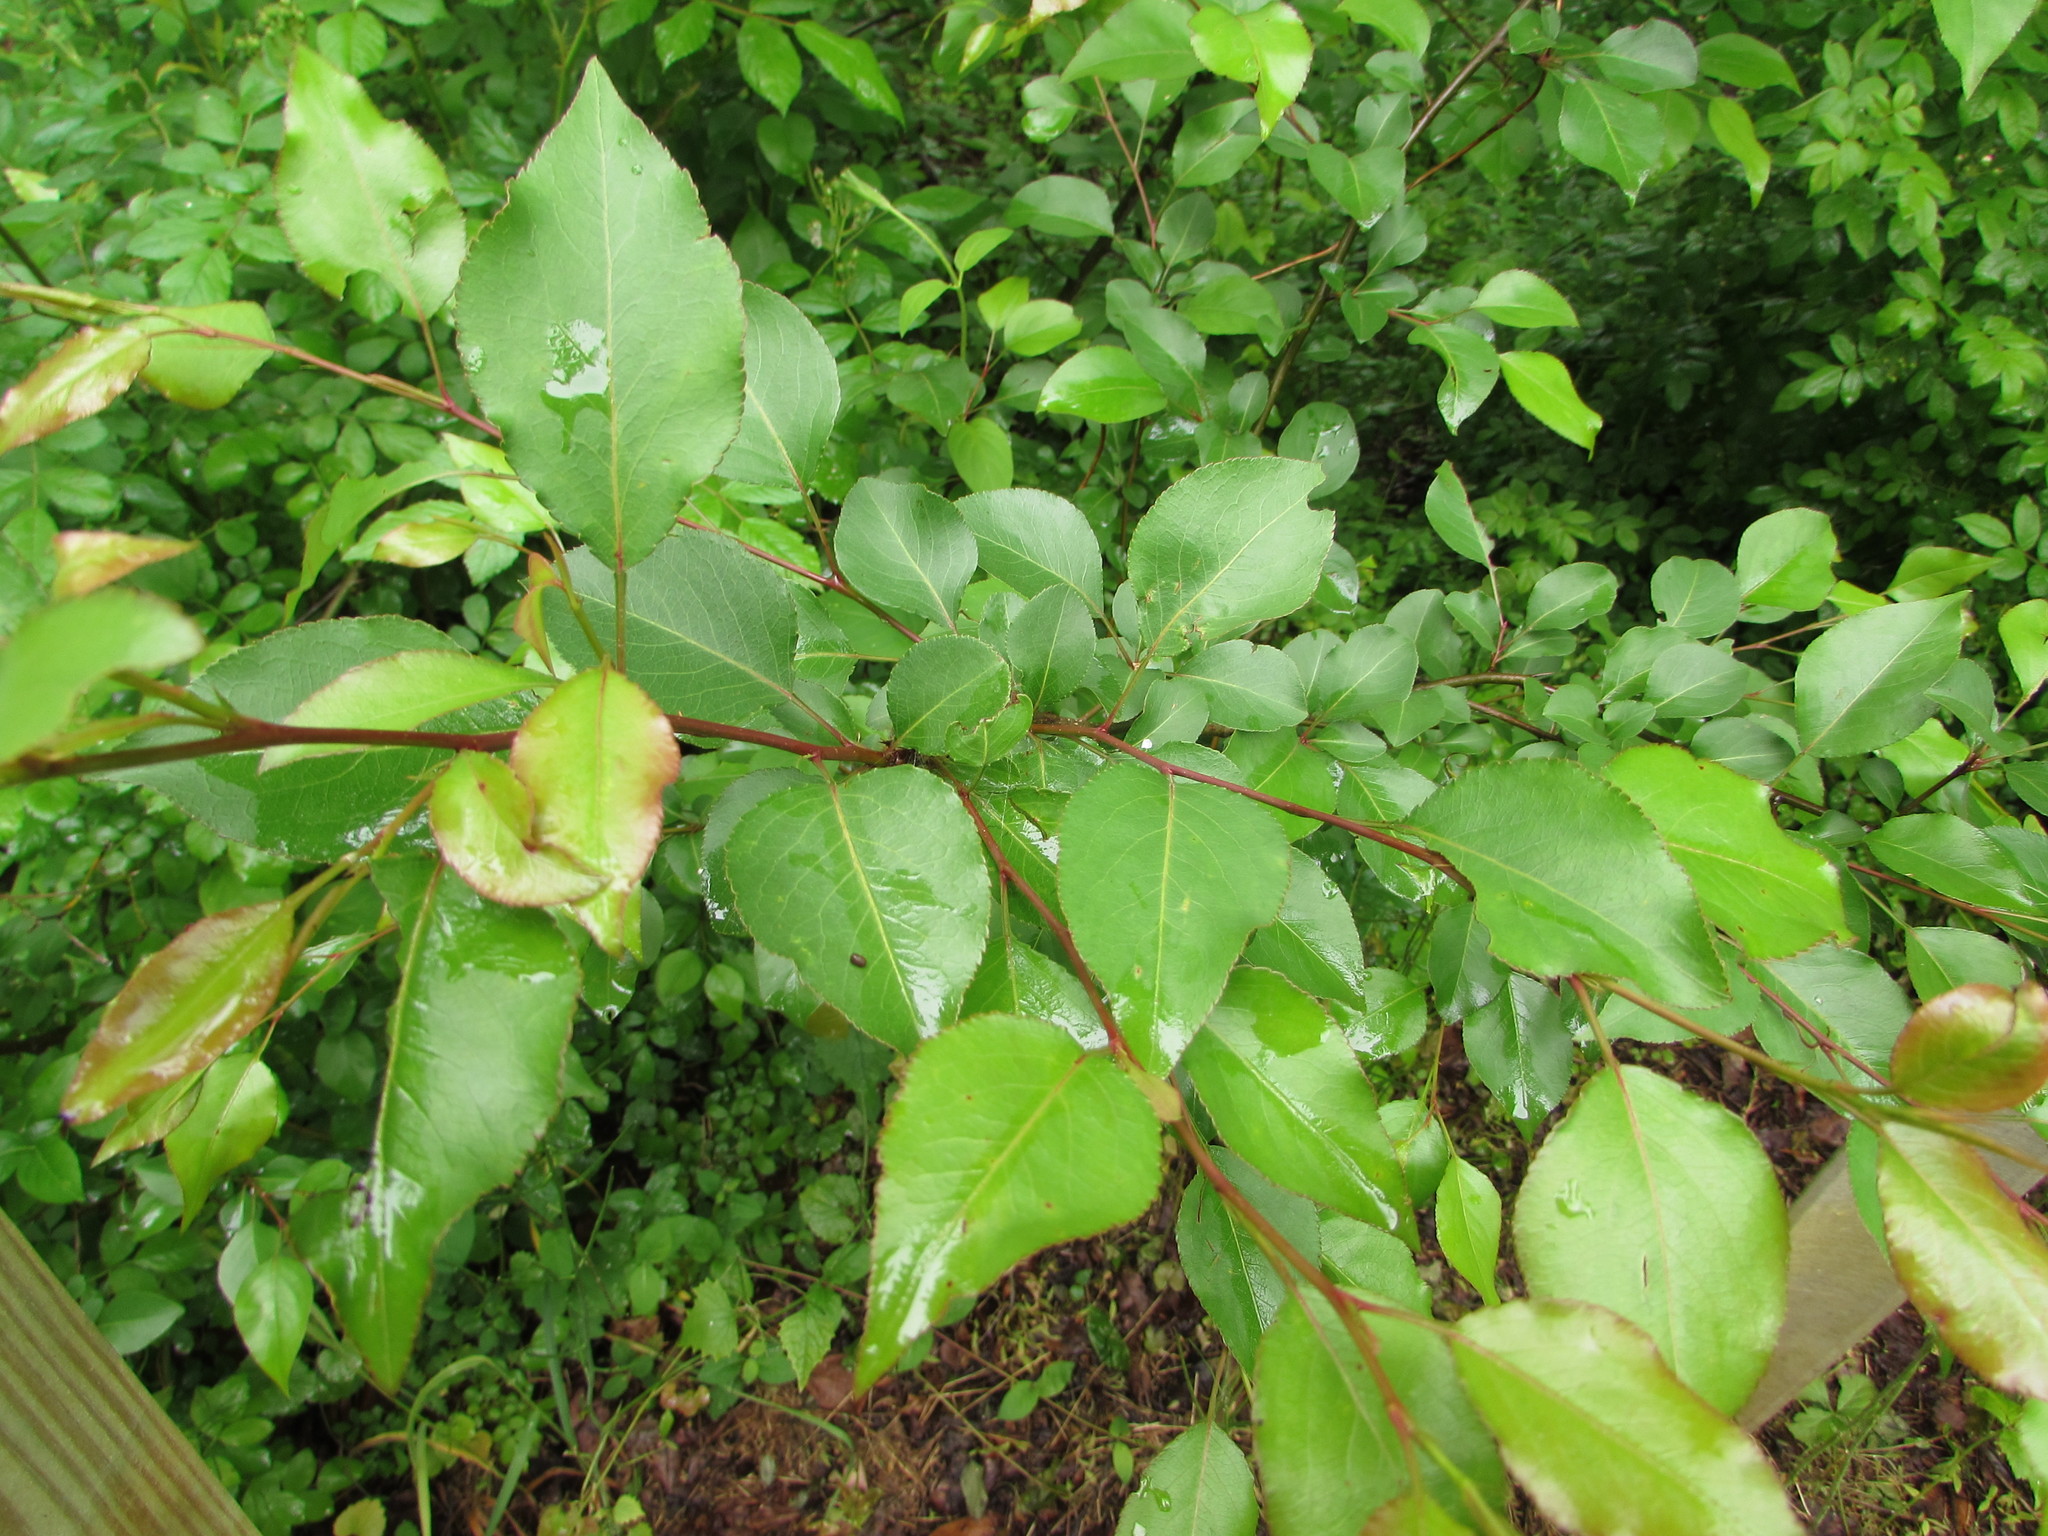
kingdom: Plantae
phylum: Tracheophyta
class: Magnoliopsida
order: Rosales
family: Rosaceae
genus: Pyrus
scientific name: Pyrus calleryana
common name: Callery pear
